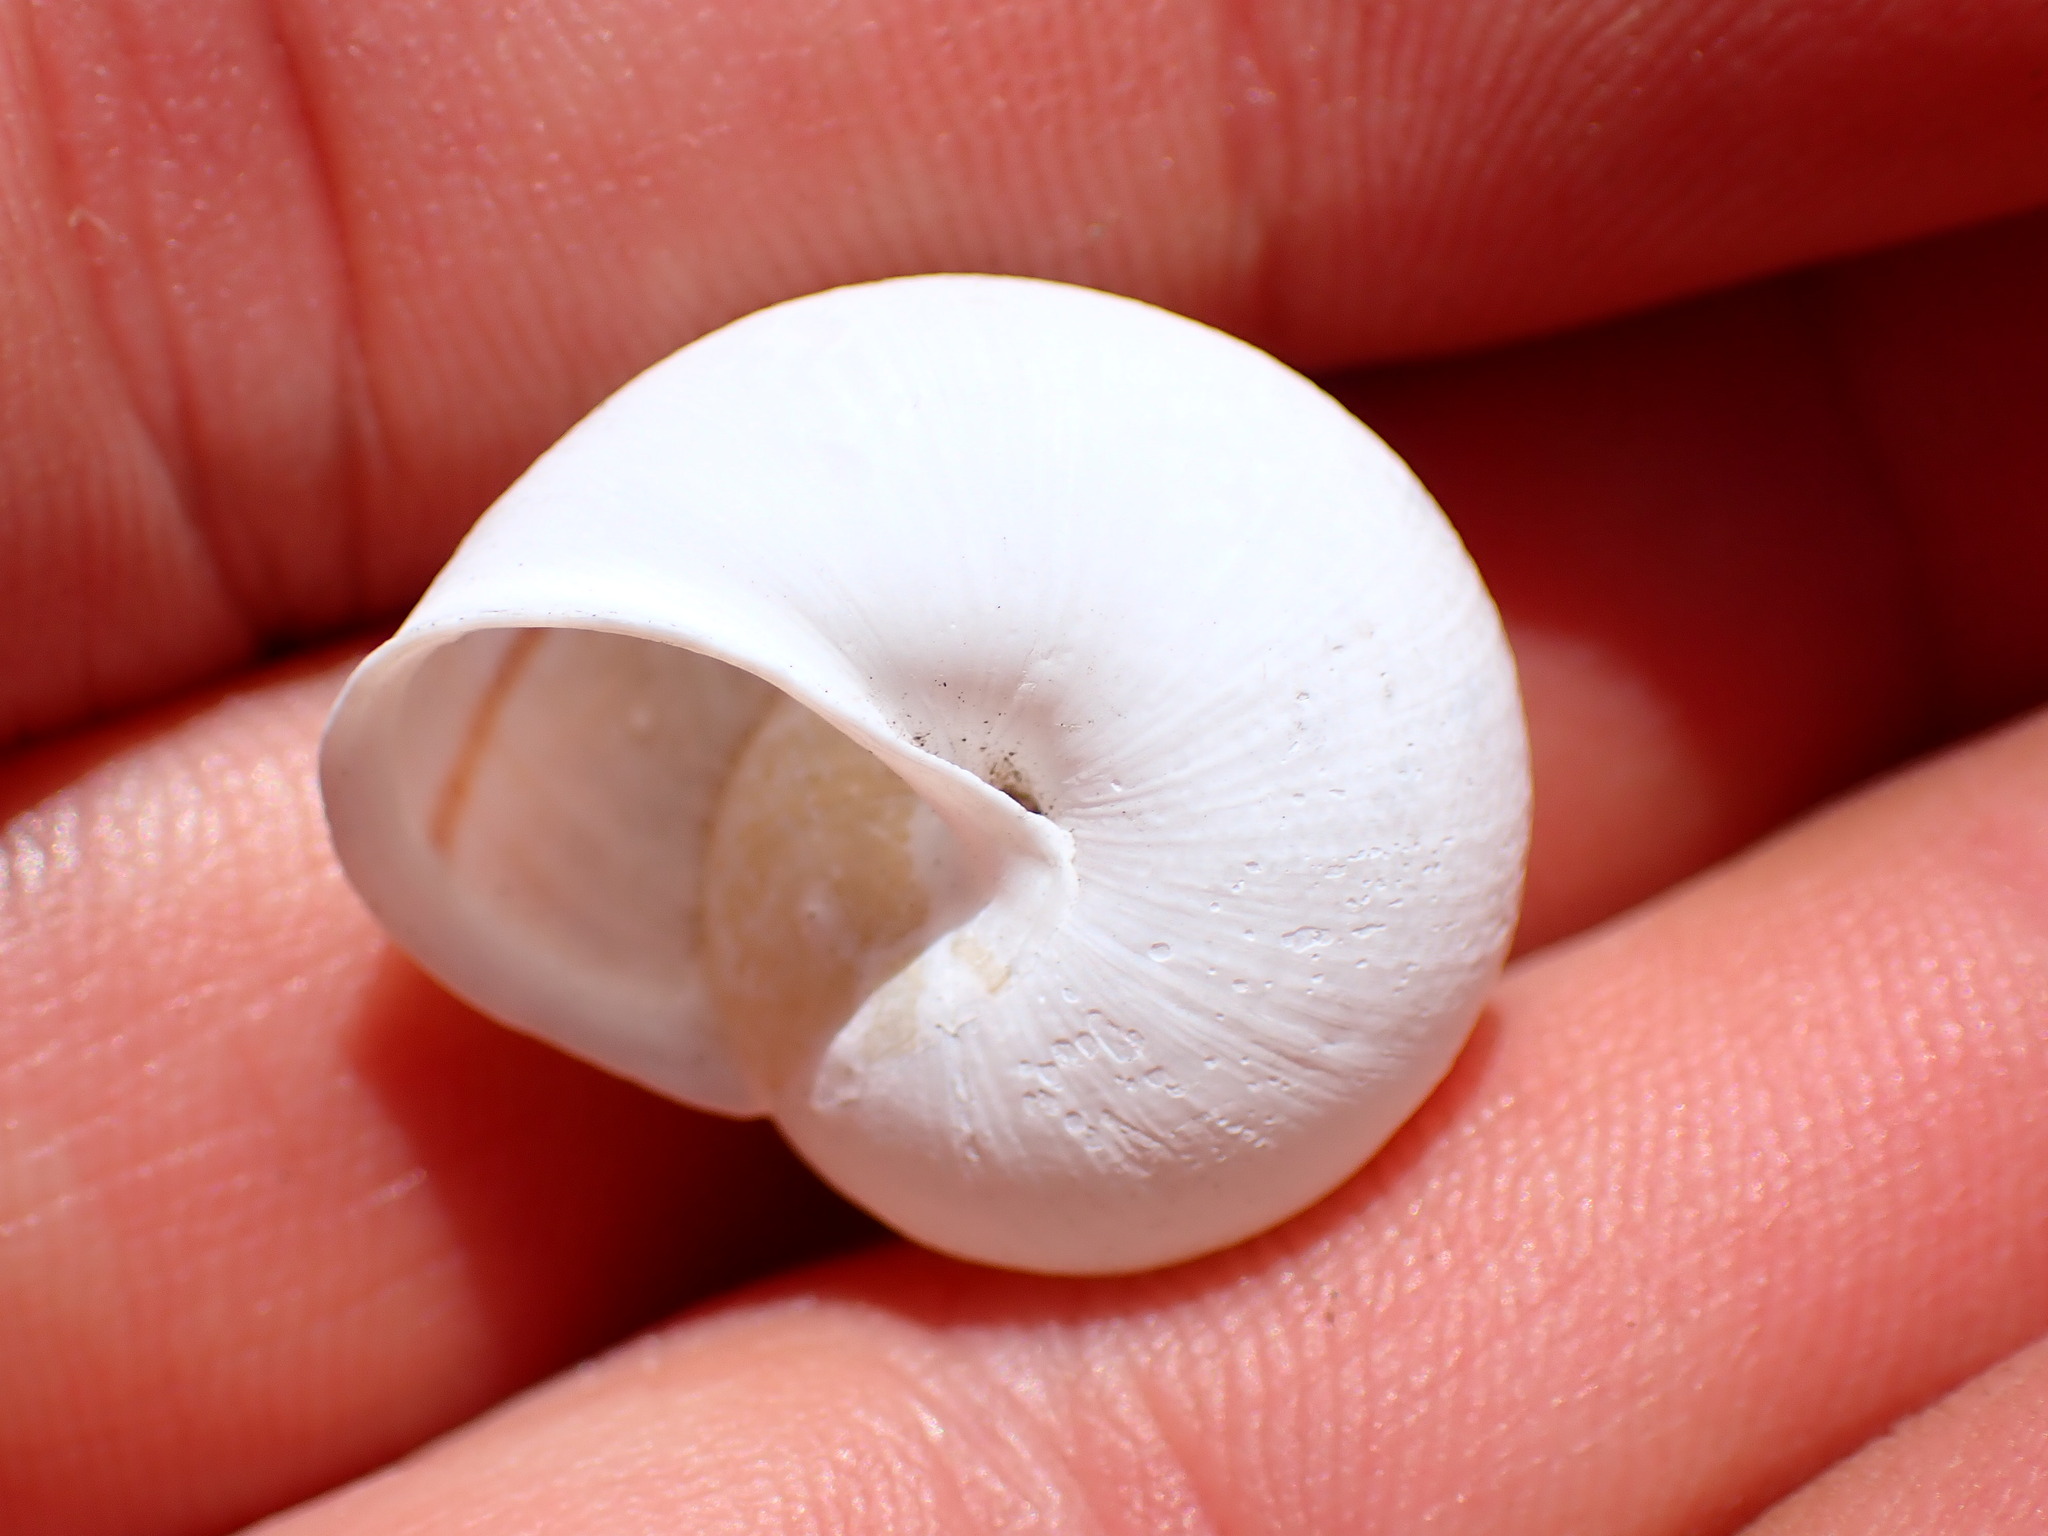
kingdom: Animalia
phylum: Mollusca
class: Gastropoda
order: Stylommatophora
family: Xanthonychidae
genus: Helminthoglypta
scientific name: Helminthoglypta nickliniana
